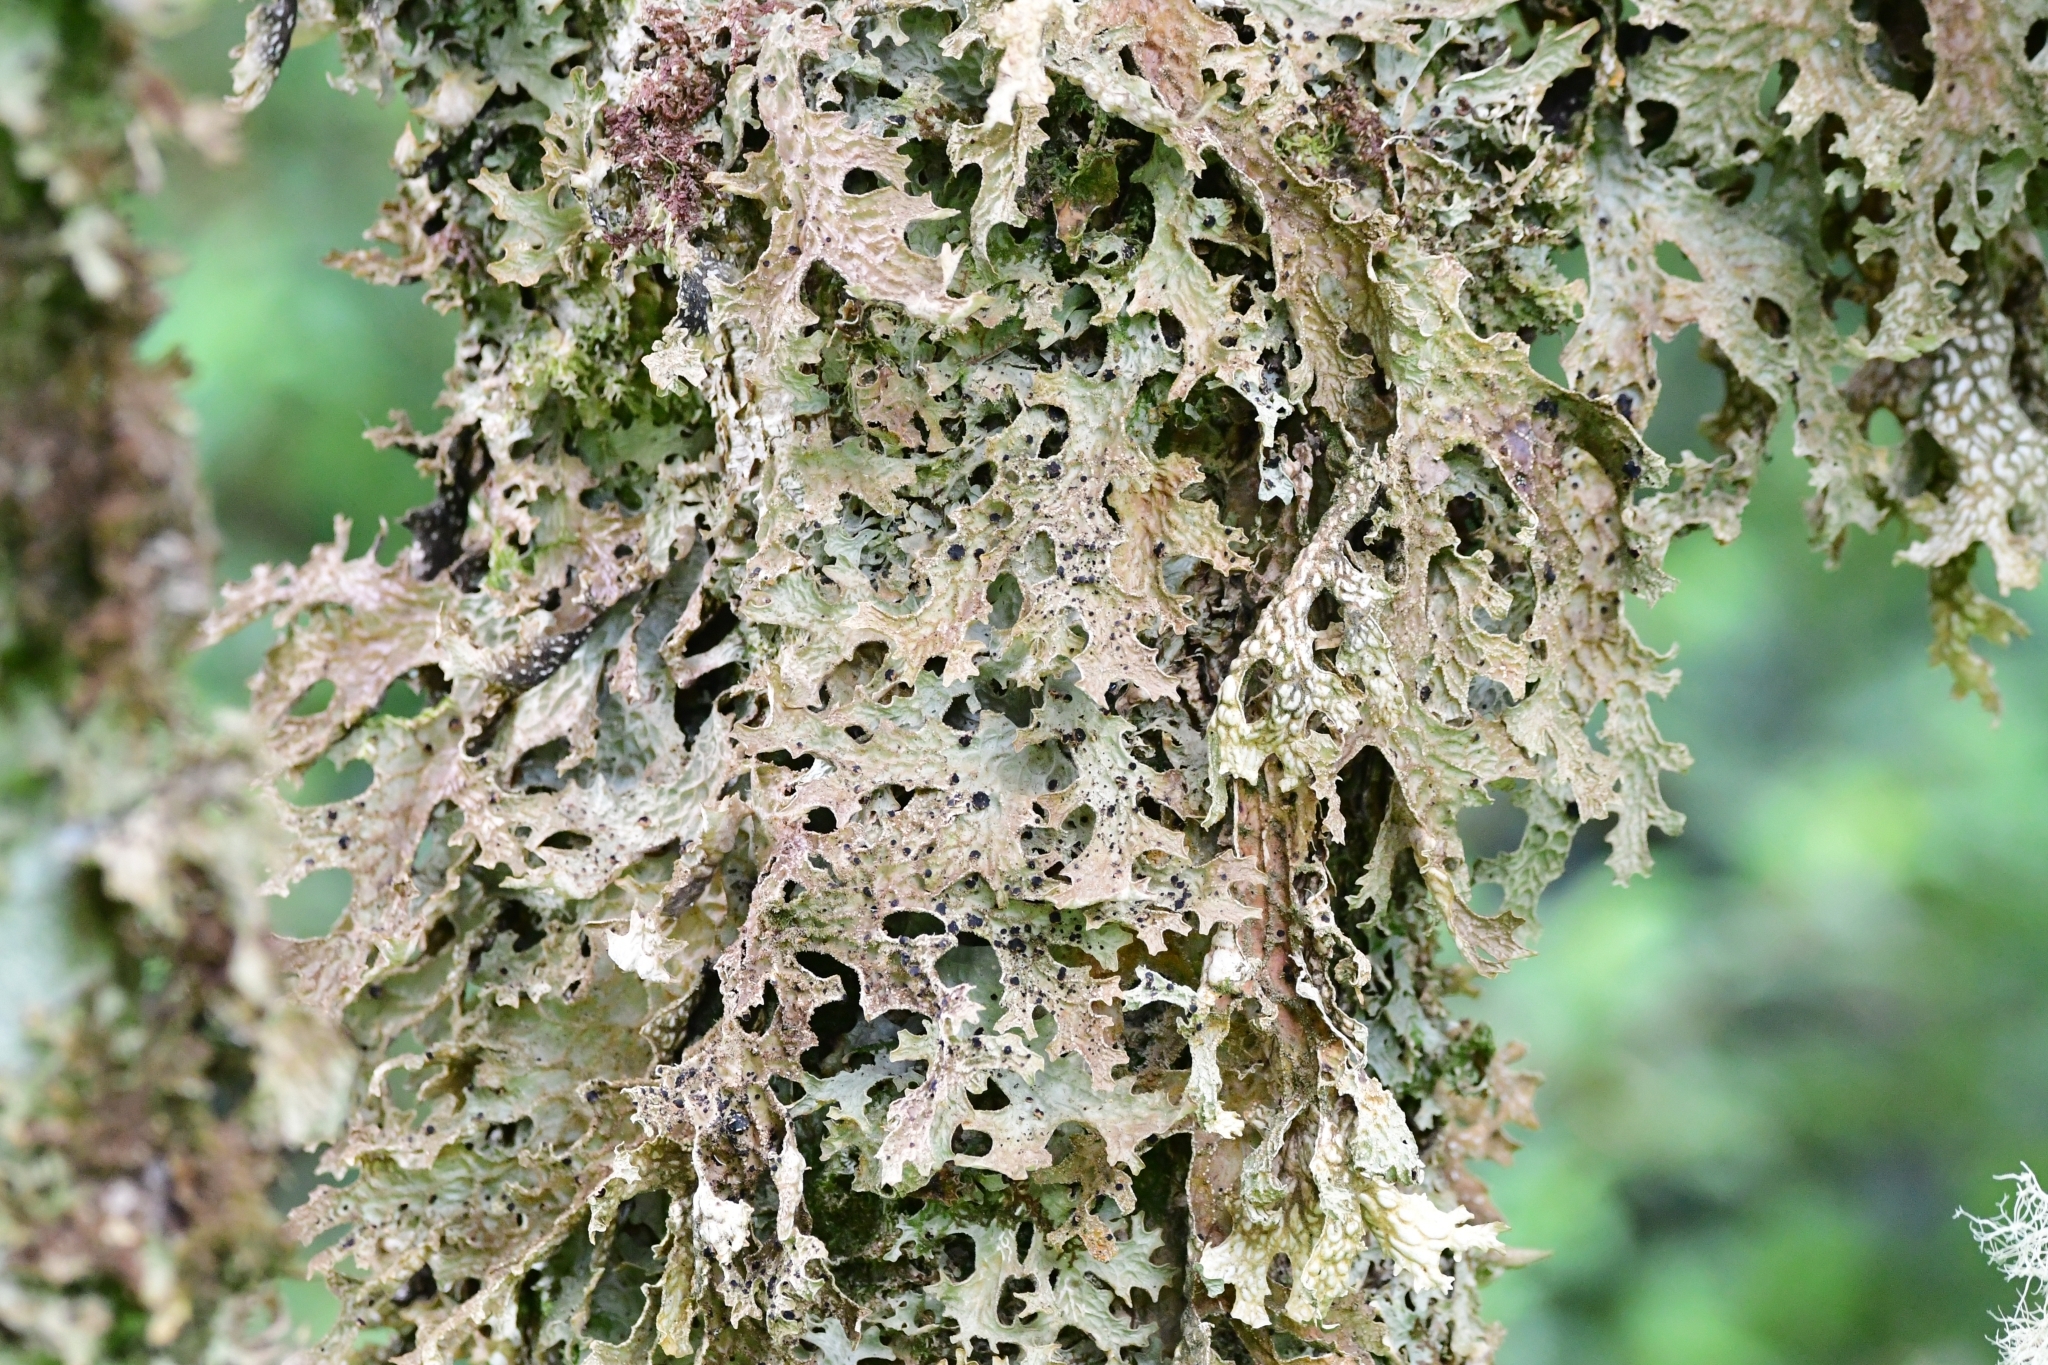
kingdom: Fungi
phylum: Ascomycota
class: Lecanoromycetes
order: Peltigerales
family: Lobariaceae
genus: Lobaria
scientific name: Lobaria pulmonaria
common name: Lungwort
